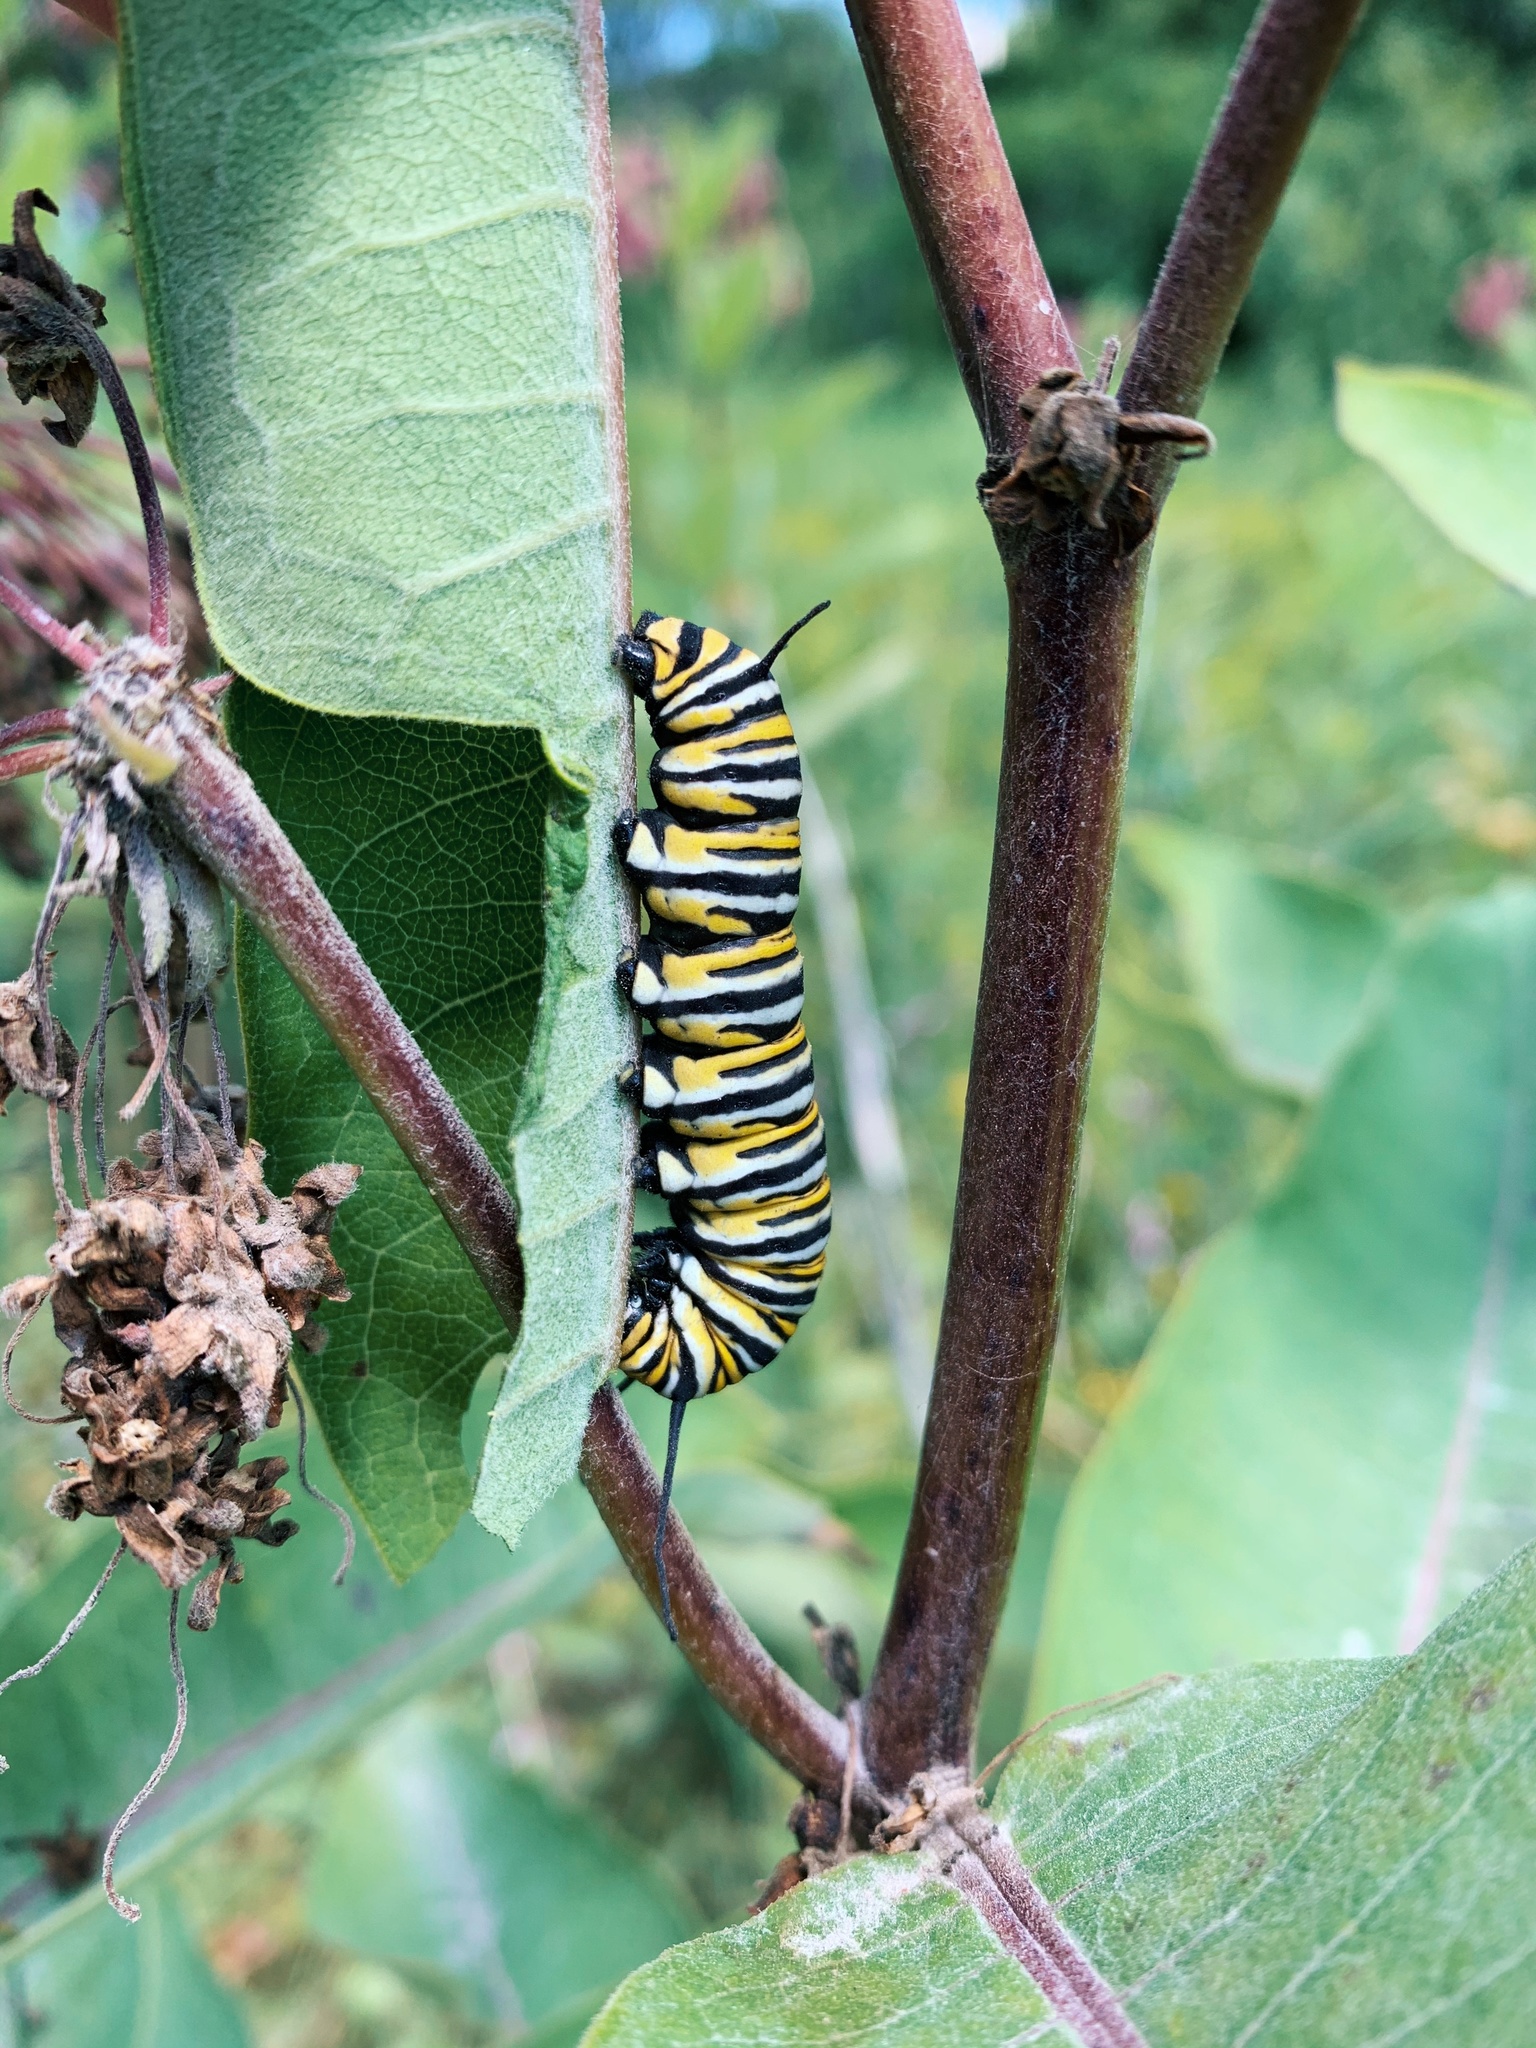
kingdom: Animalia
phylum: Arthropoda
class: Insecta
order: Lepidoptera
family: Nymphalidae
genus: Danaus
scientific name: Danaus plexippus
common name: Monarch
